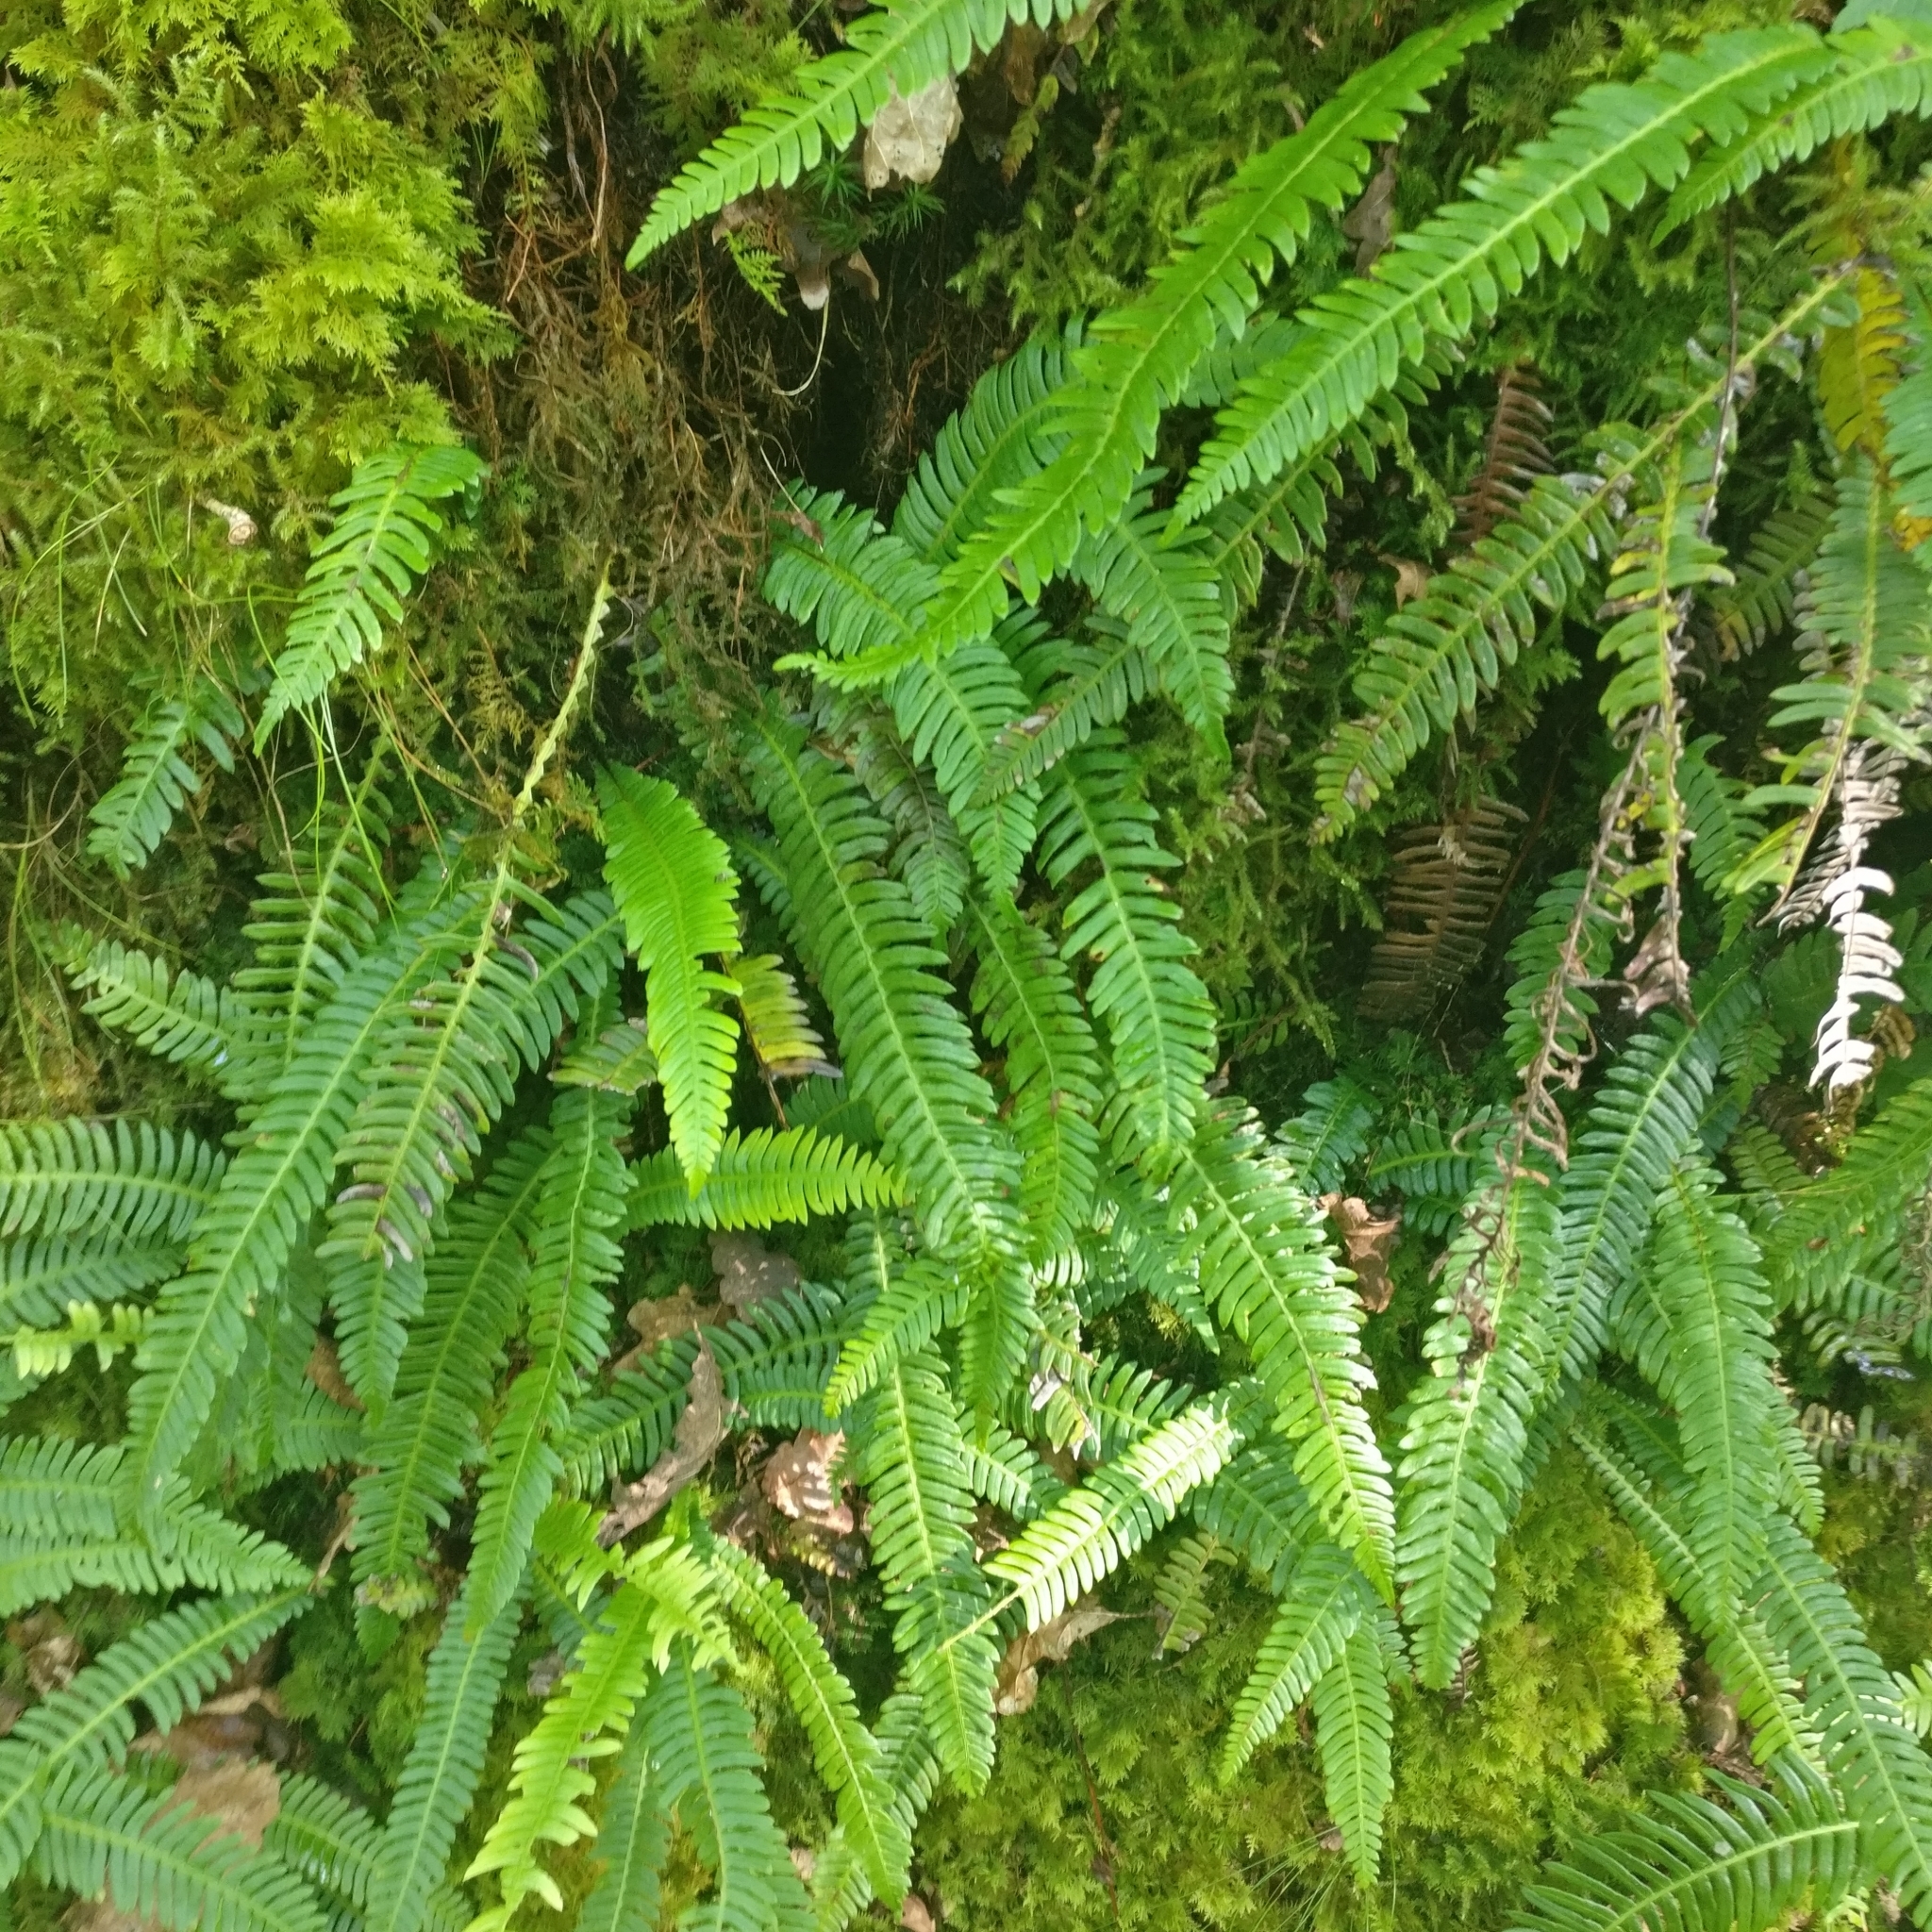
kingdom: Plantae
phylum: Tracheophyta
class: Polypodiopsida
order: Polypodiales
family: Blechnaceae
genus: Struthiopteris
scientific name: Struthiopteris spicant
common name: Deer fern
